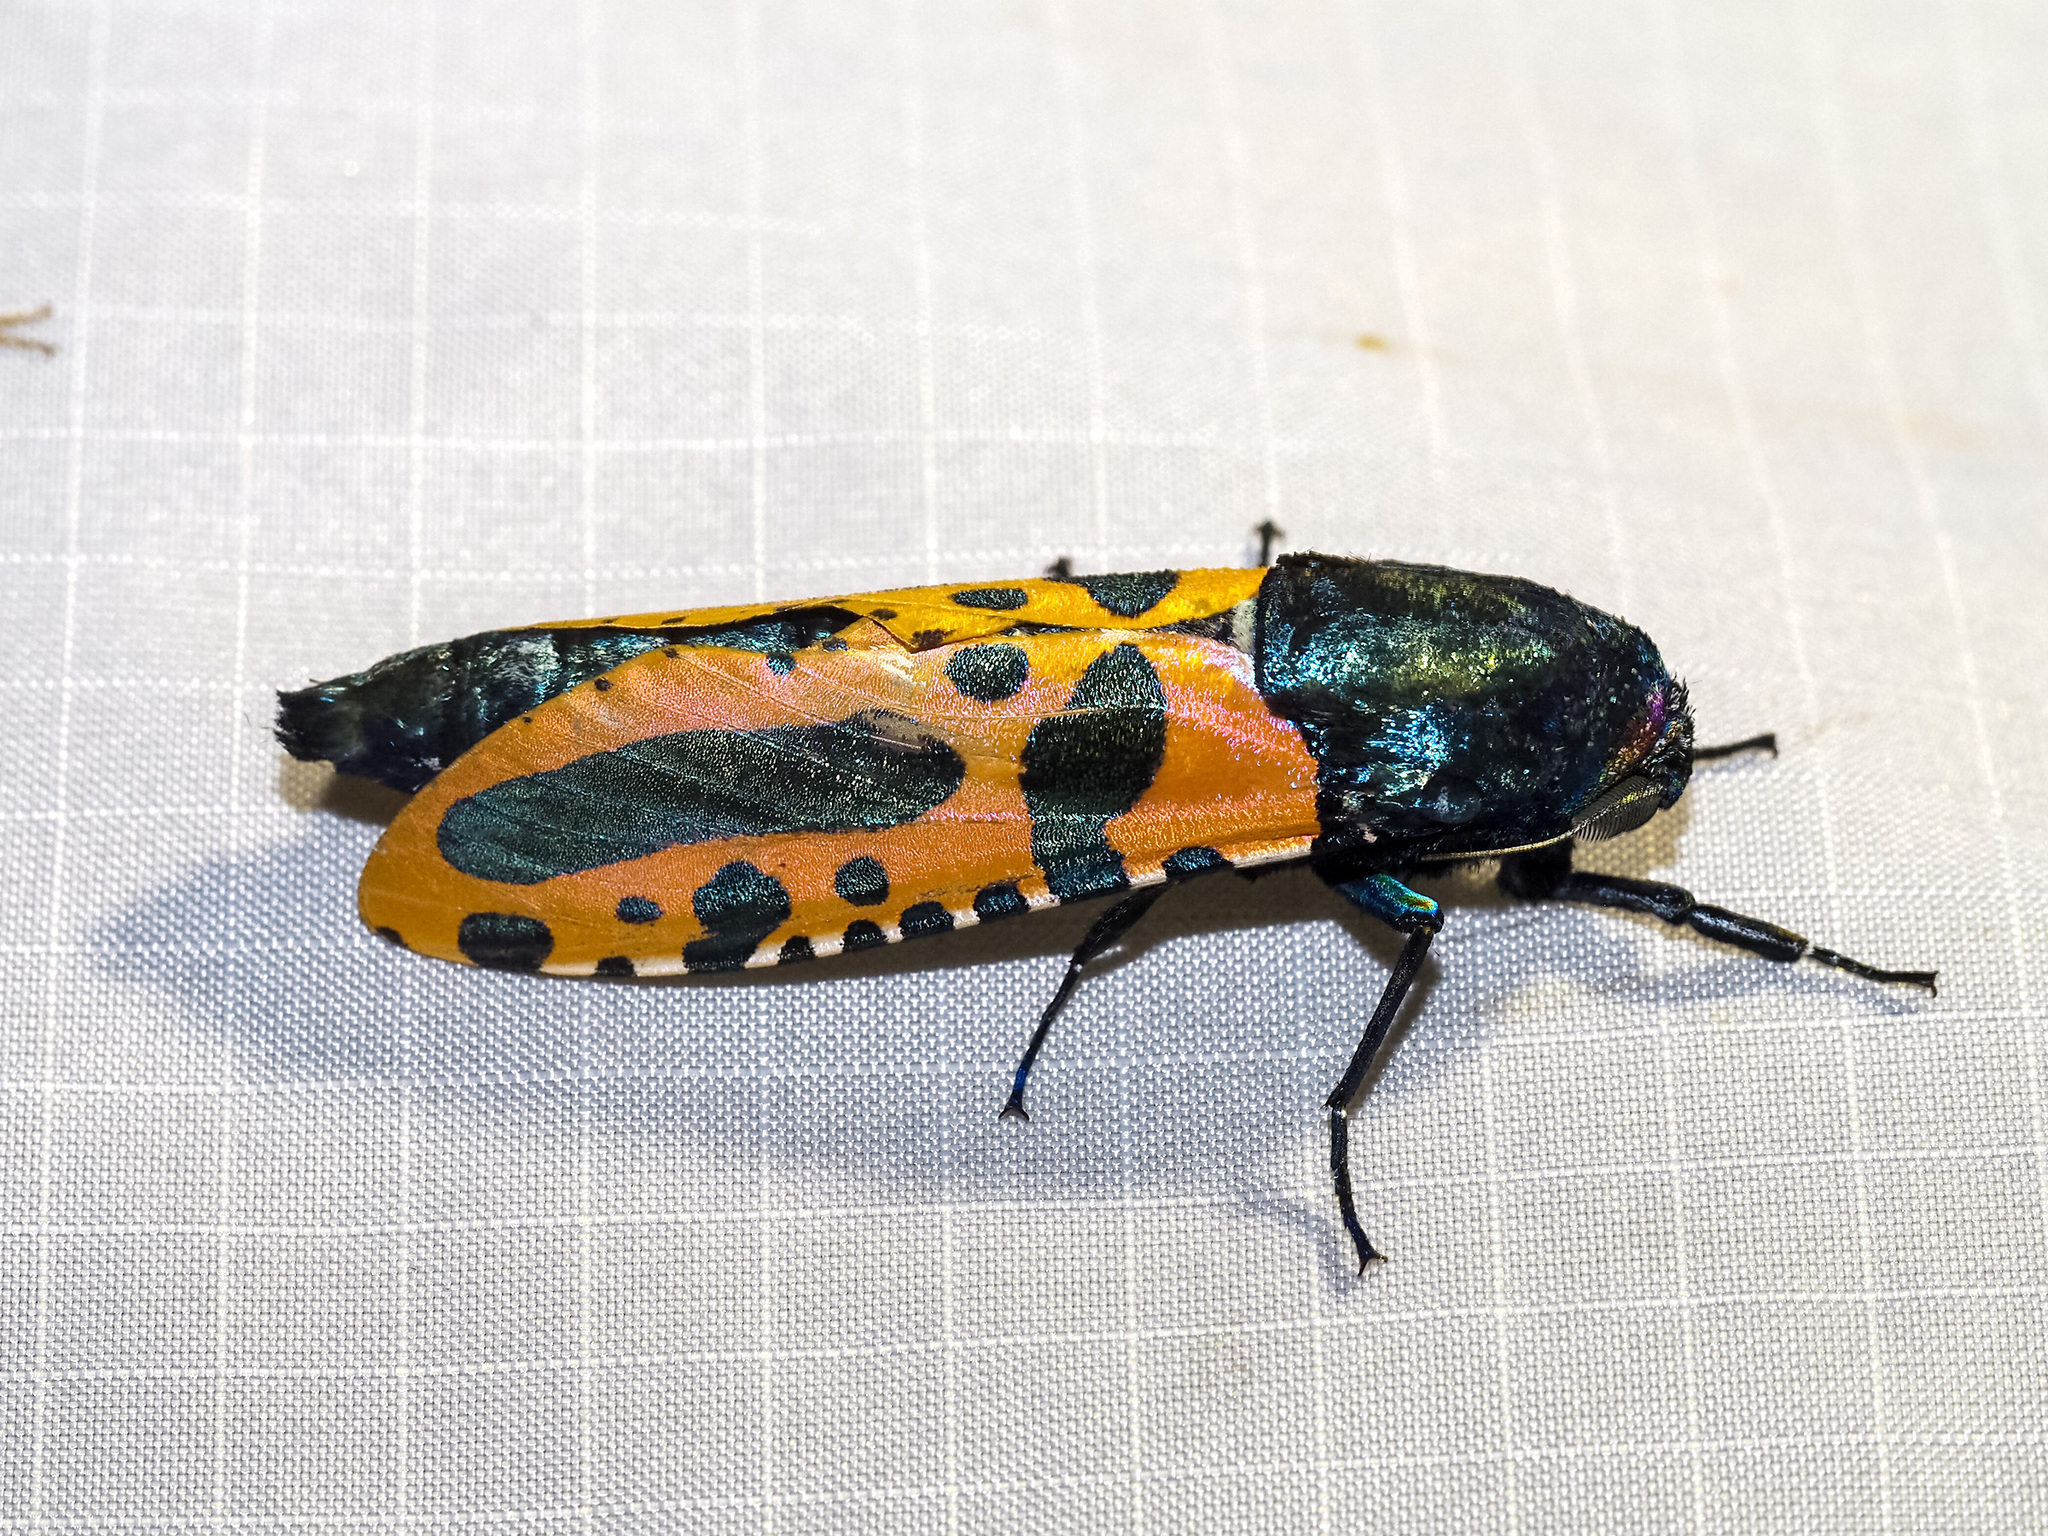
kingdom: Animalia
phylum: Arthropoda
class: Insecta
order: Lepidoptera
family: Cossidae
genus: Chalcidica
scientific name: Chalcidica minea
